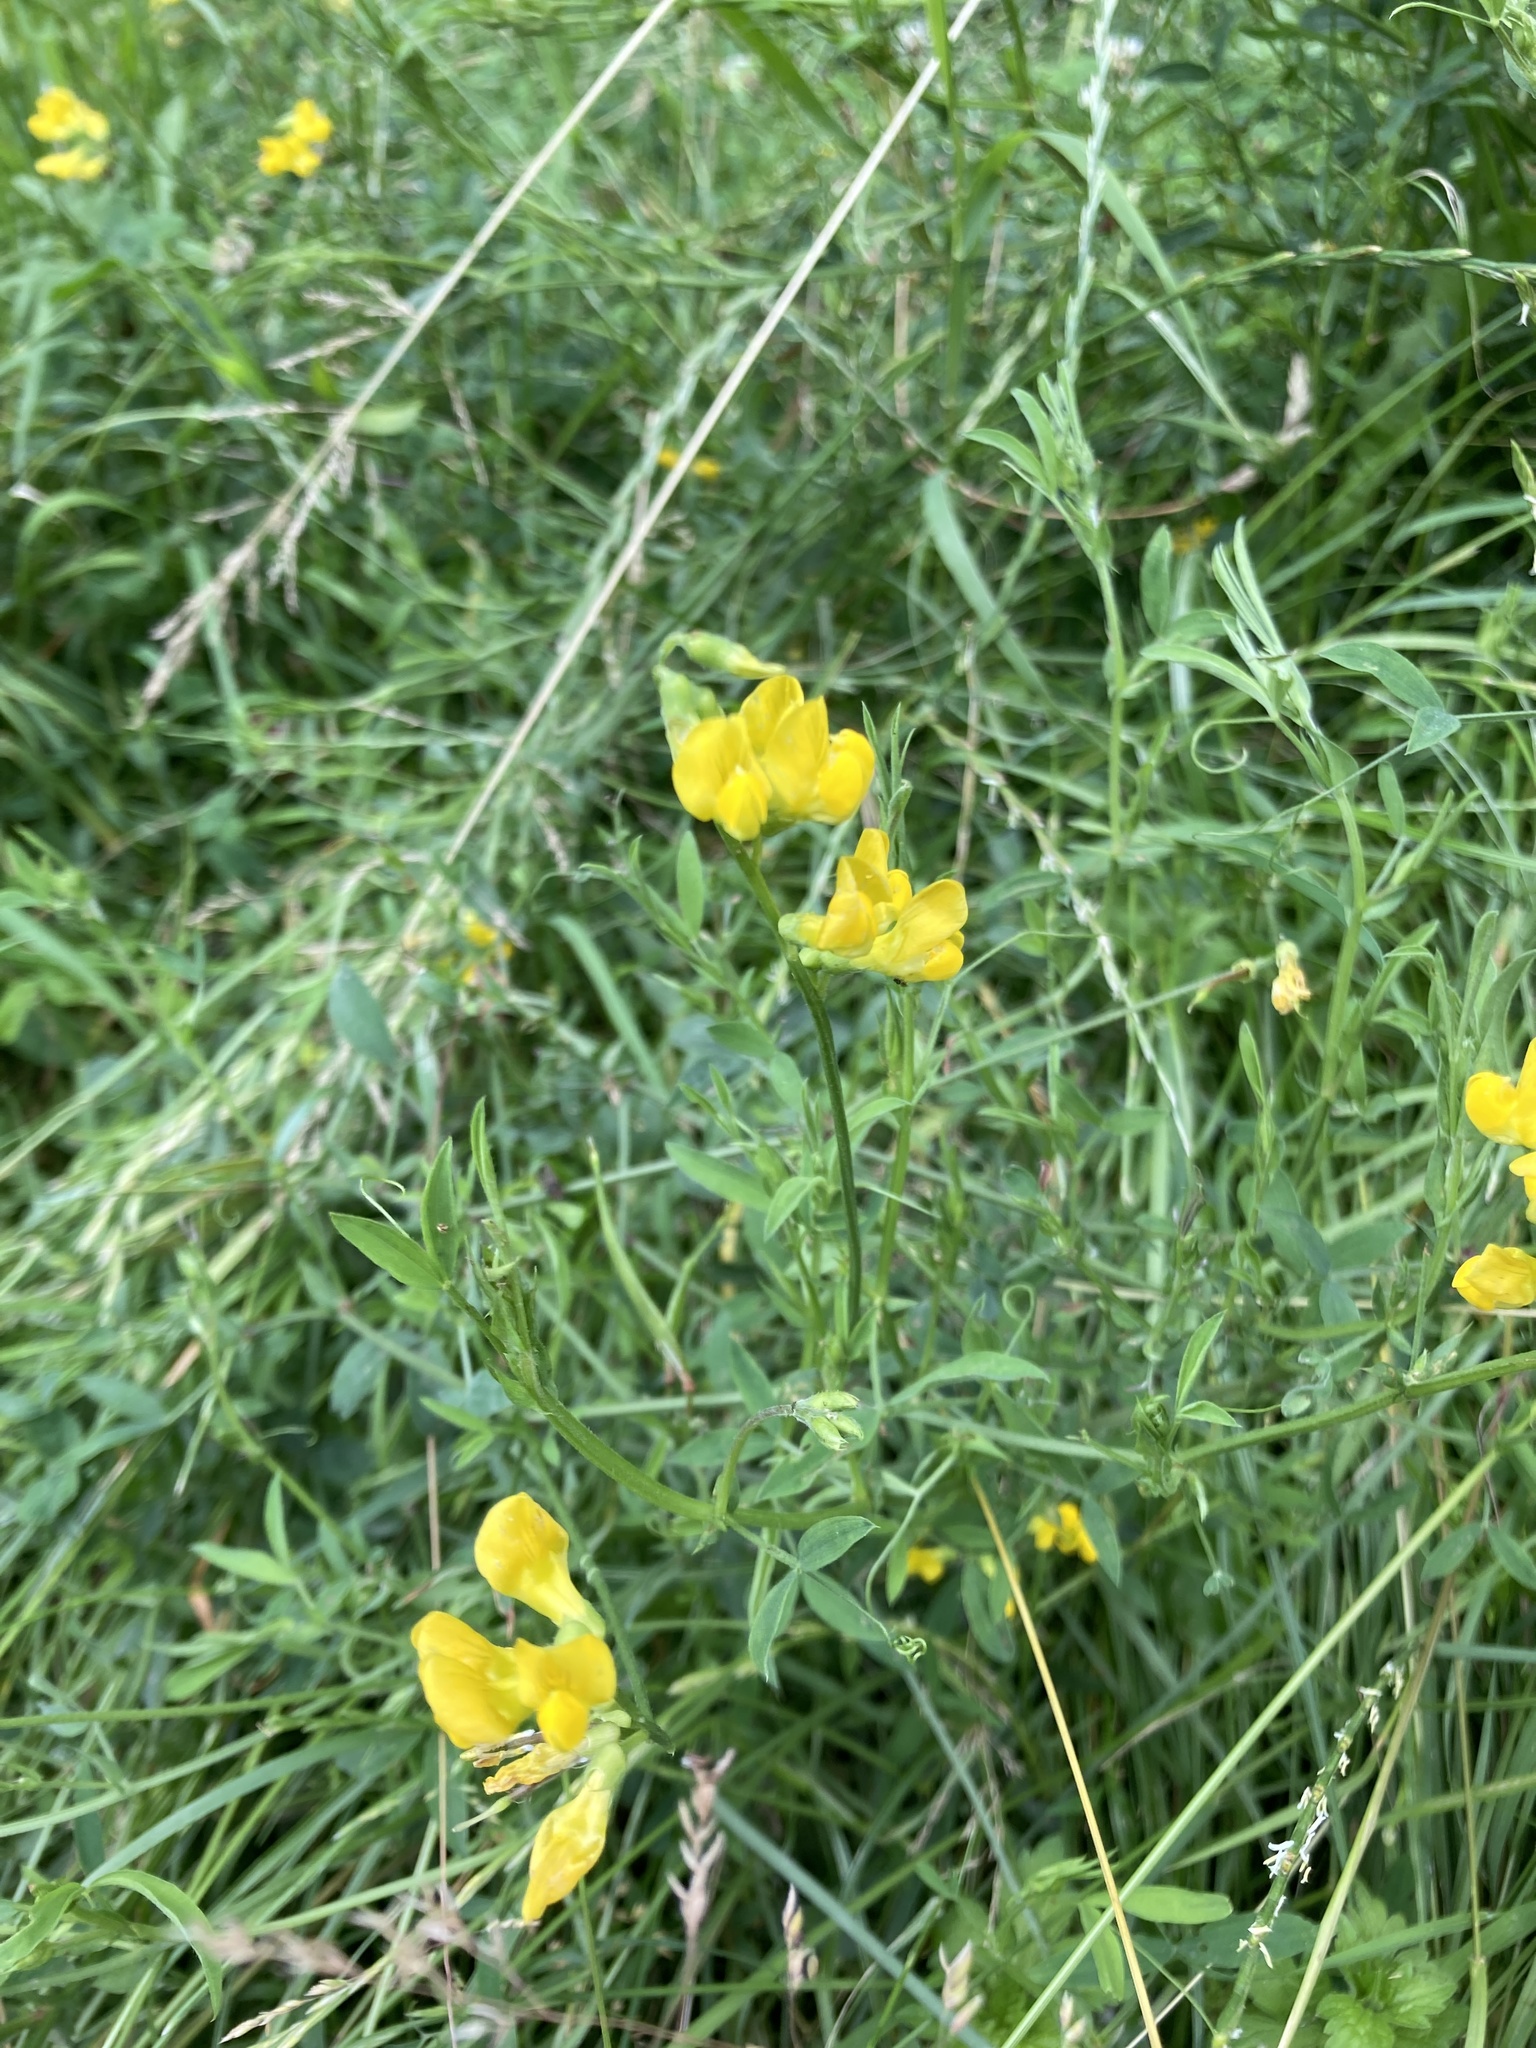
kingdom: Plantae
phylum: Tracheophyta
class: Magnoliopsida
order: Fabales
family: Fabaceae
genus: Lathyrus
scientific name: Lathyrus pratensis
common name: Meadow vetchling
